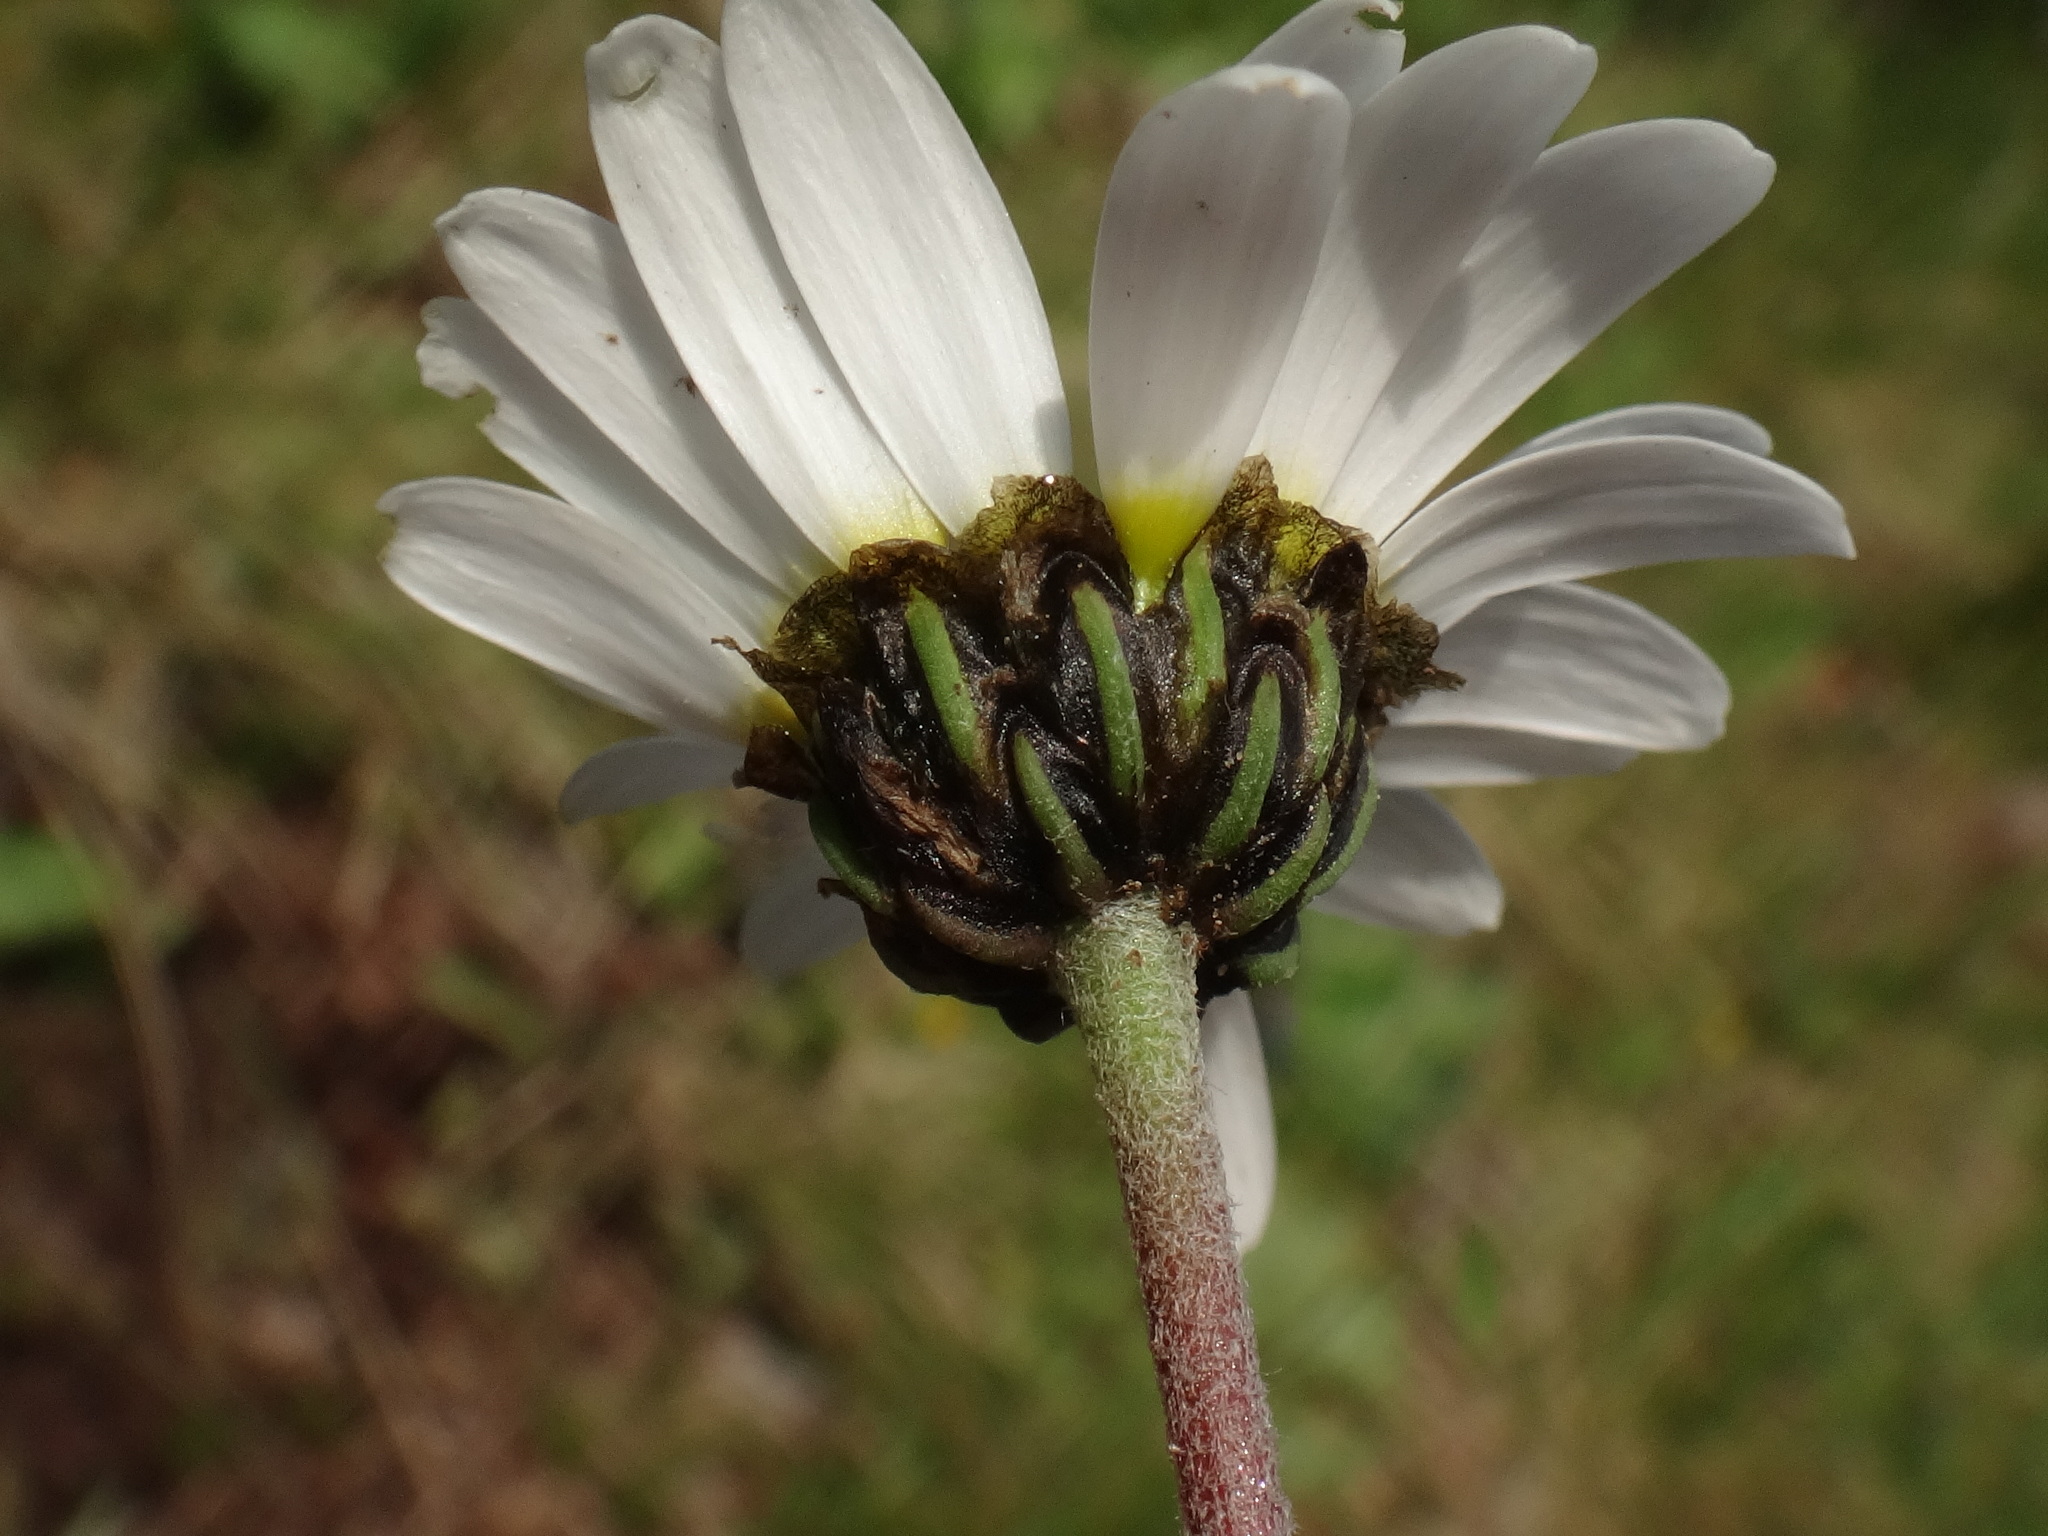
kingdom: Plantae
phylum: Tracheophyta
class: Magnoliopsida
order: Asterales
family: Asteraceae
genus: Leucanthemopsis
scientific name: Leucanthemopsis alpina
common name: Alpine moon daisy
